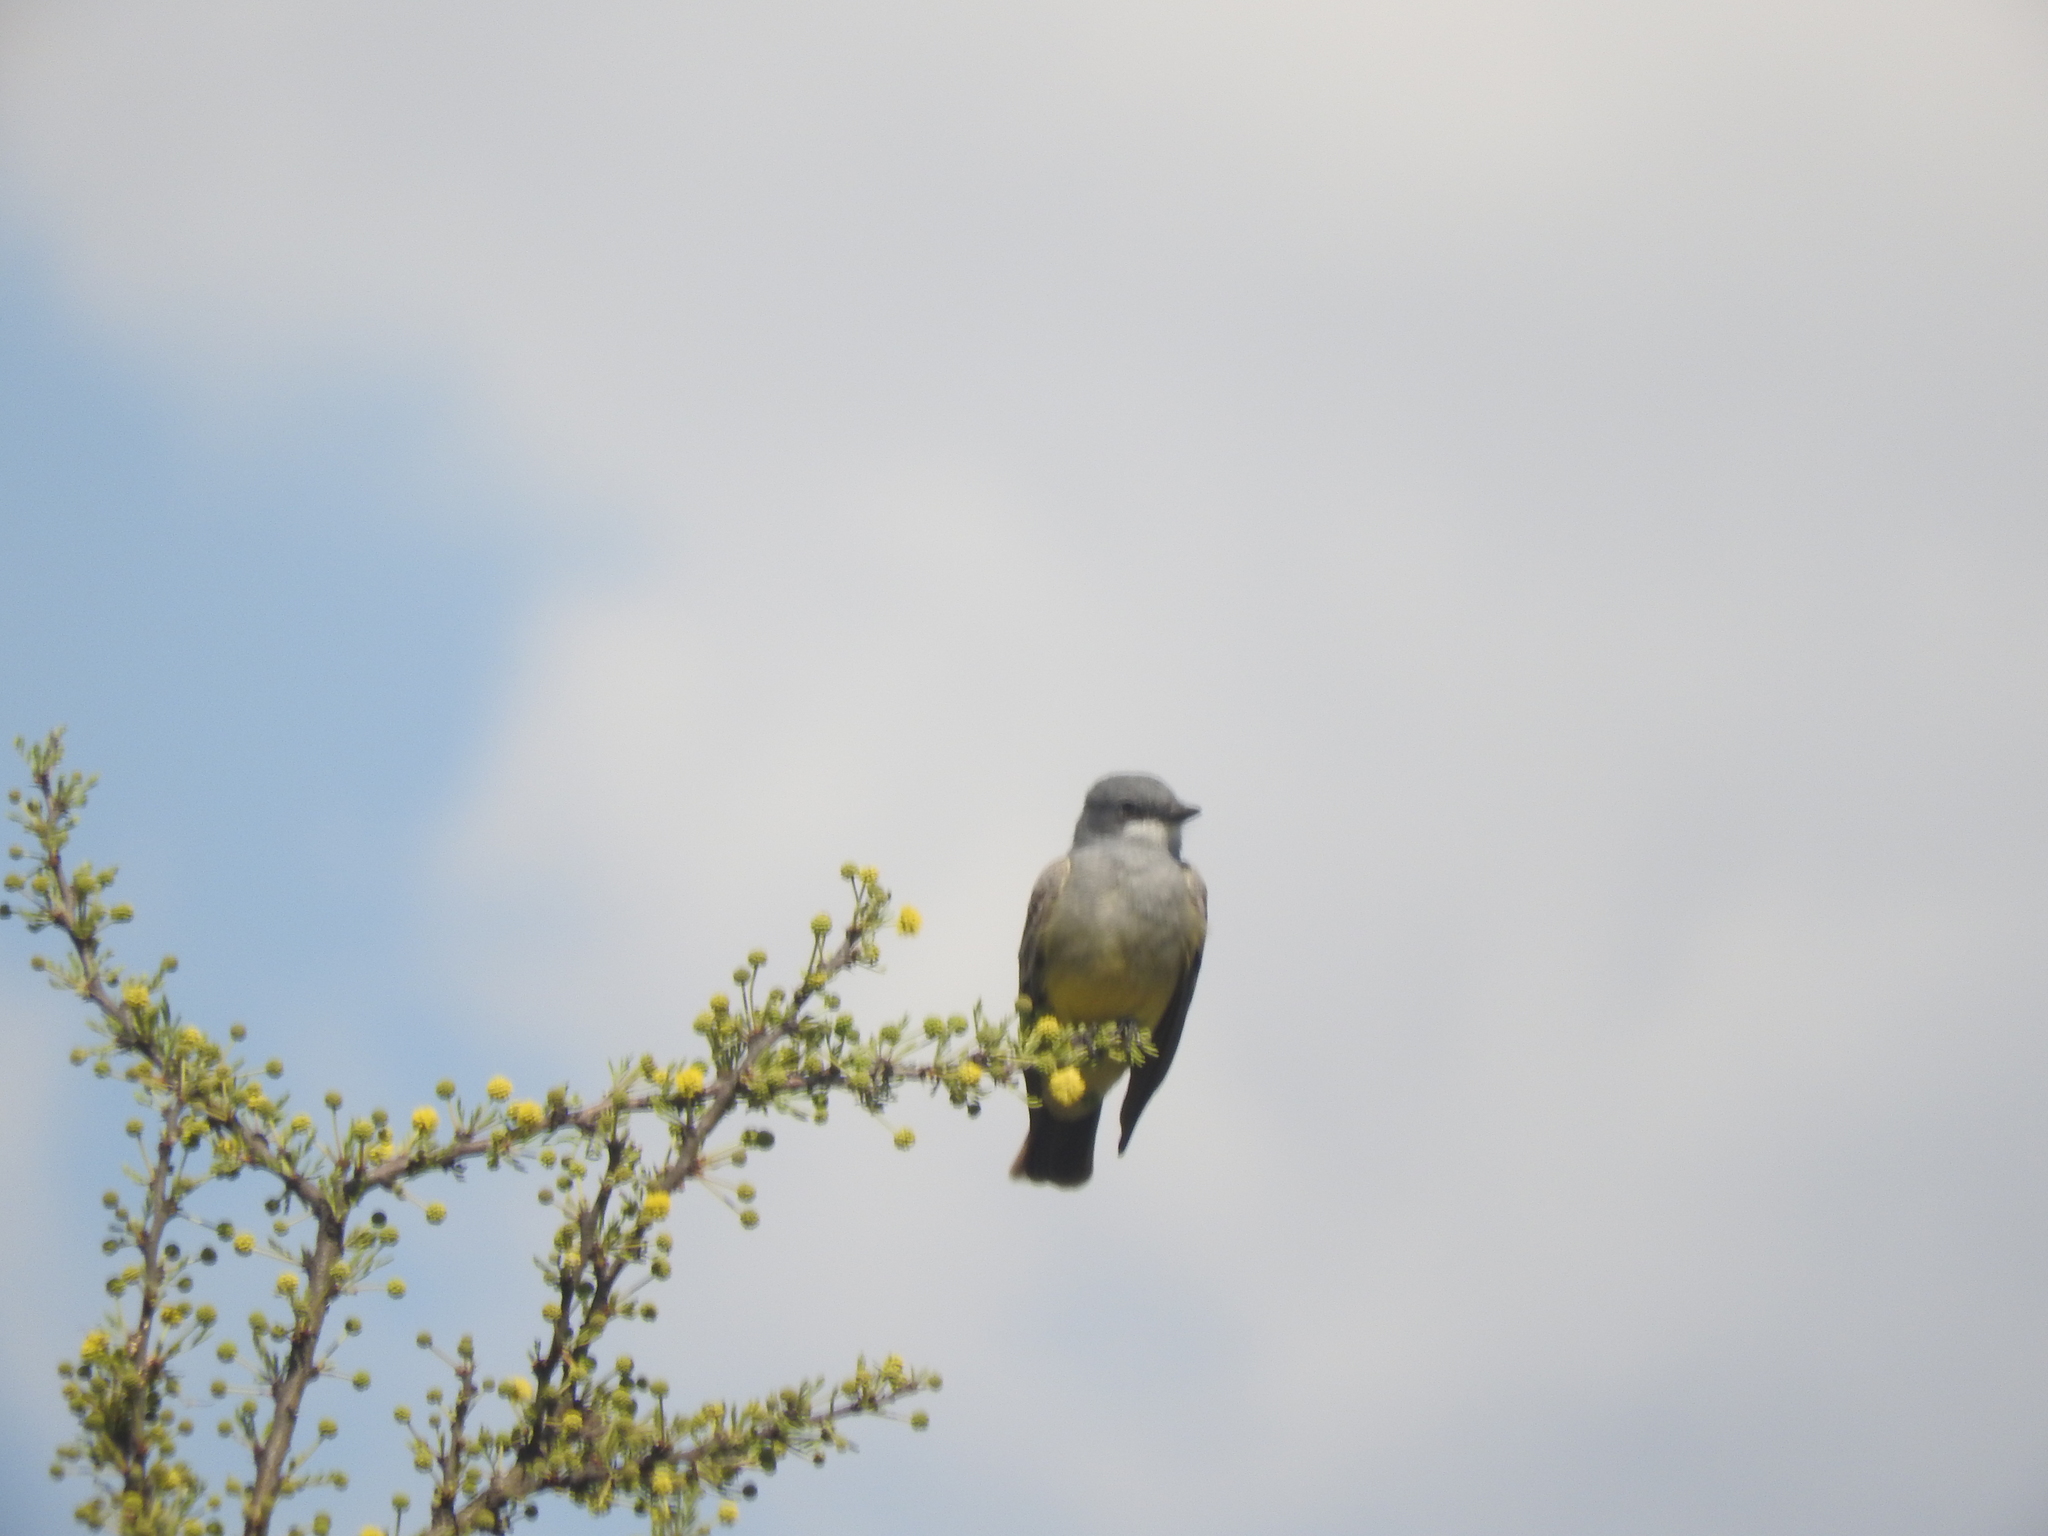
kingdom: Animalia
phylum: Chordata
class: Aves
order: Passeriformes
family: Tyrannidae
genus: Tyrannus
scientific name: Tyrannus vociferans
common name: Cassin's kingbird
